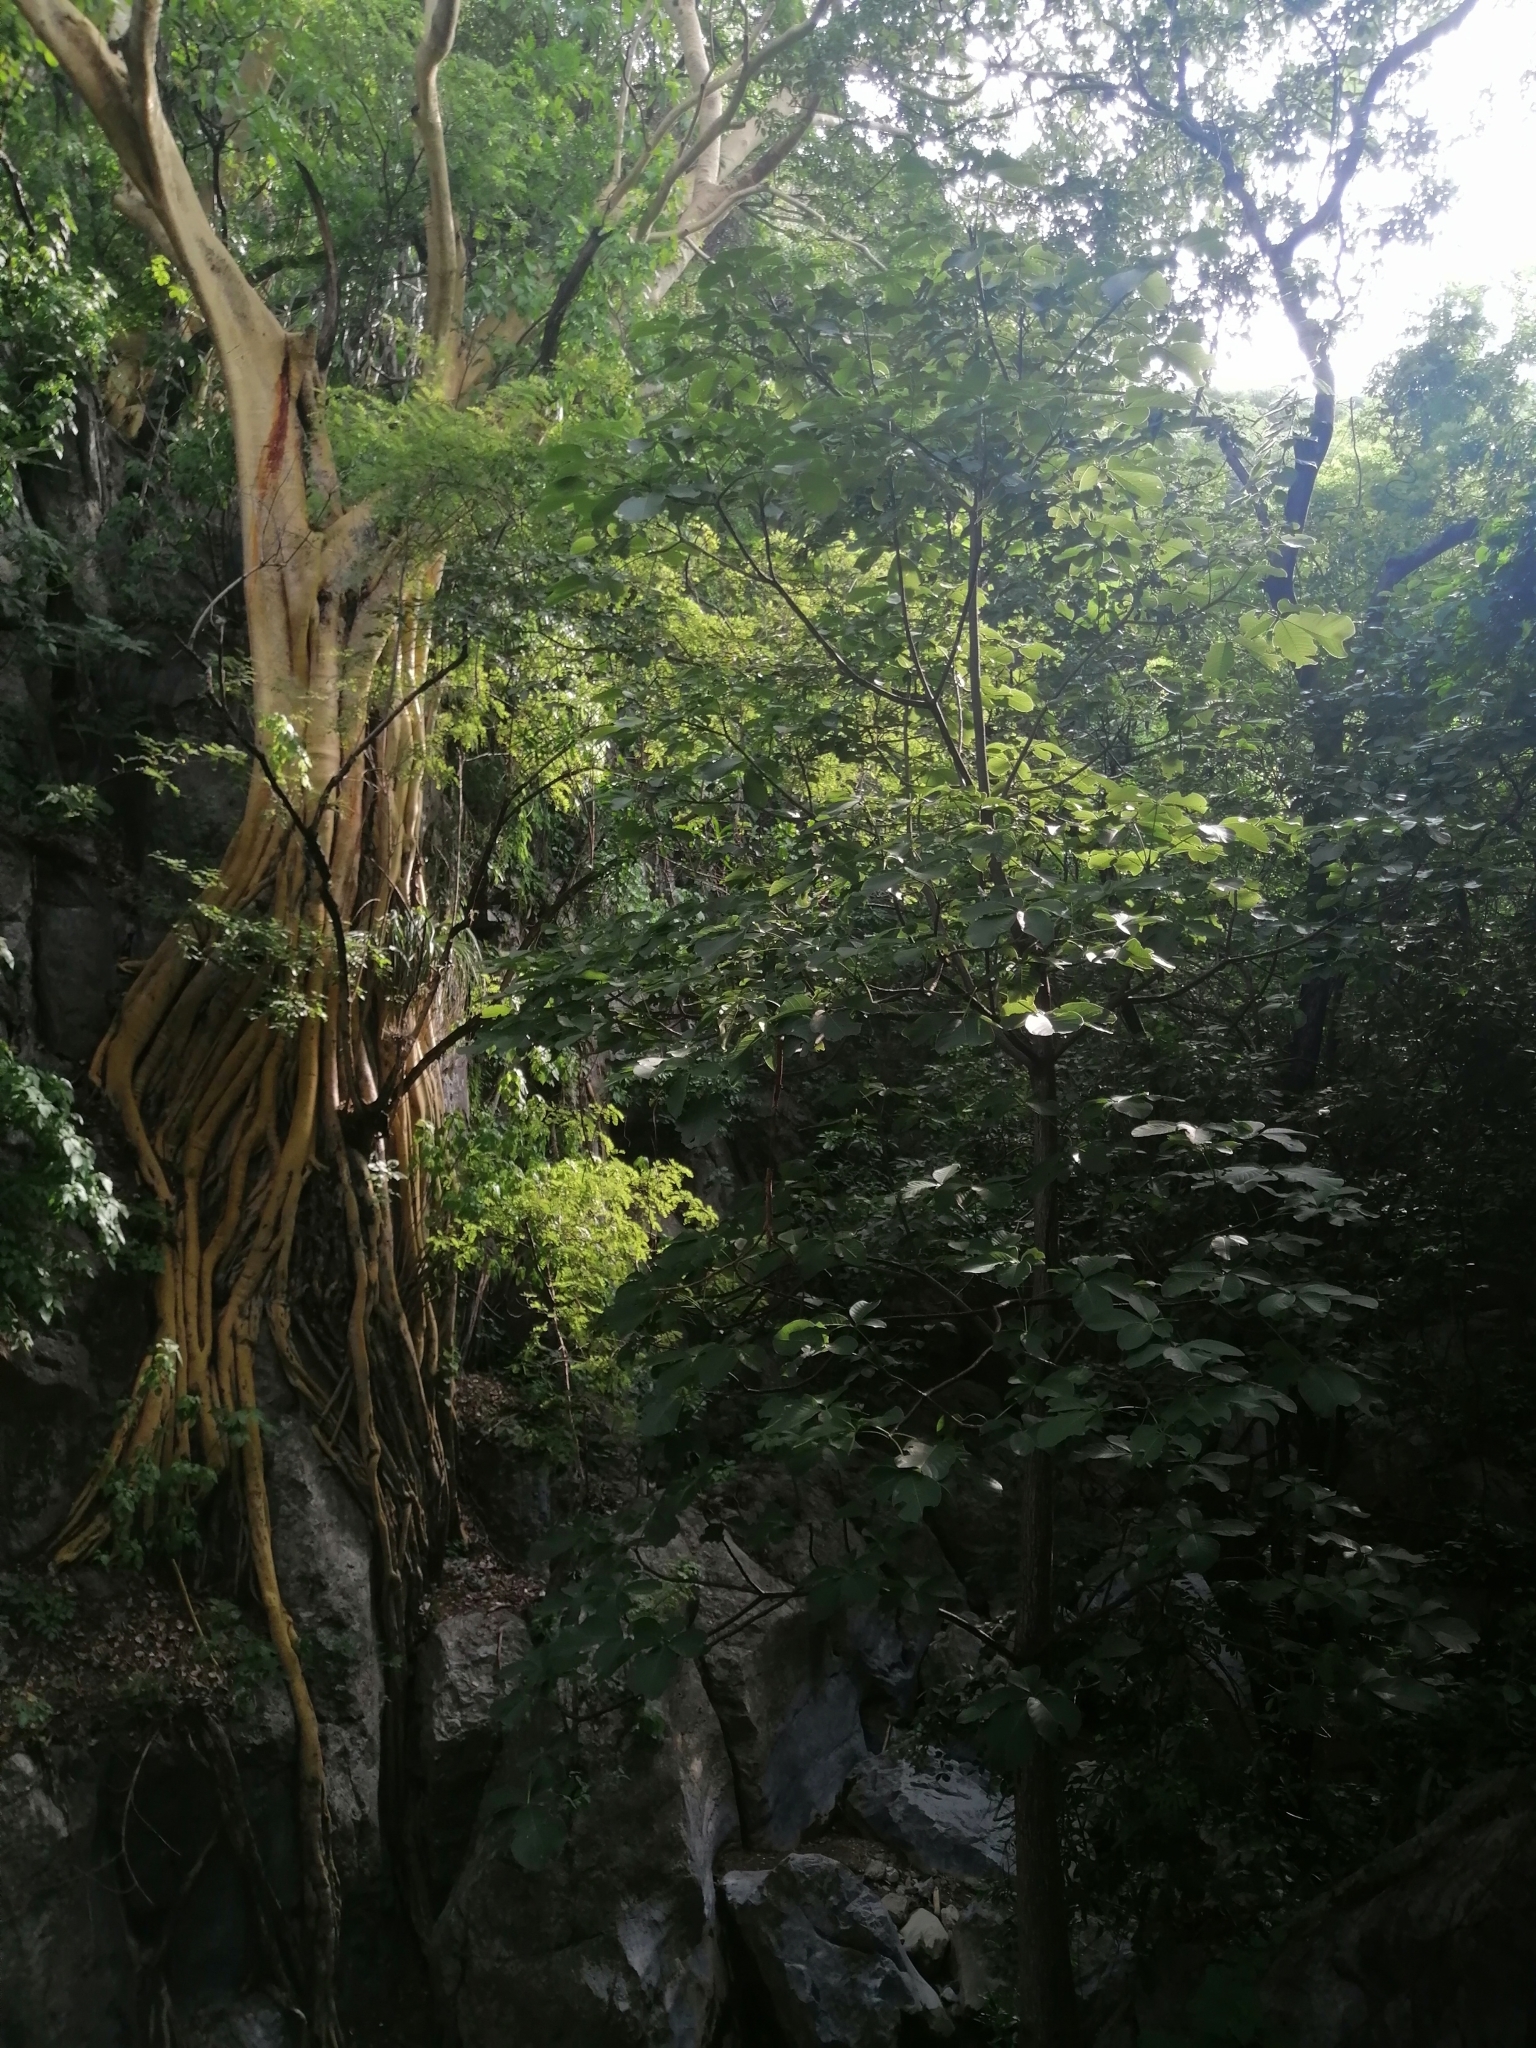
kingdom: Plantae
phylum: Tracheophyta
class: Magnoliopsida
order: Rosales
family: Moraceae
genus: Ficus
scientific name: Ficus petiolaris
